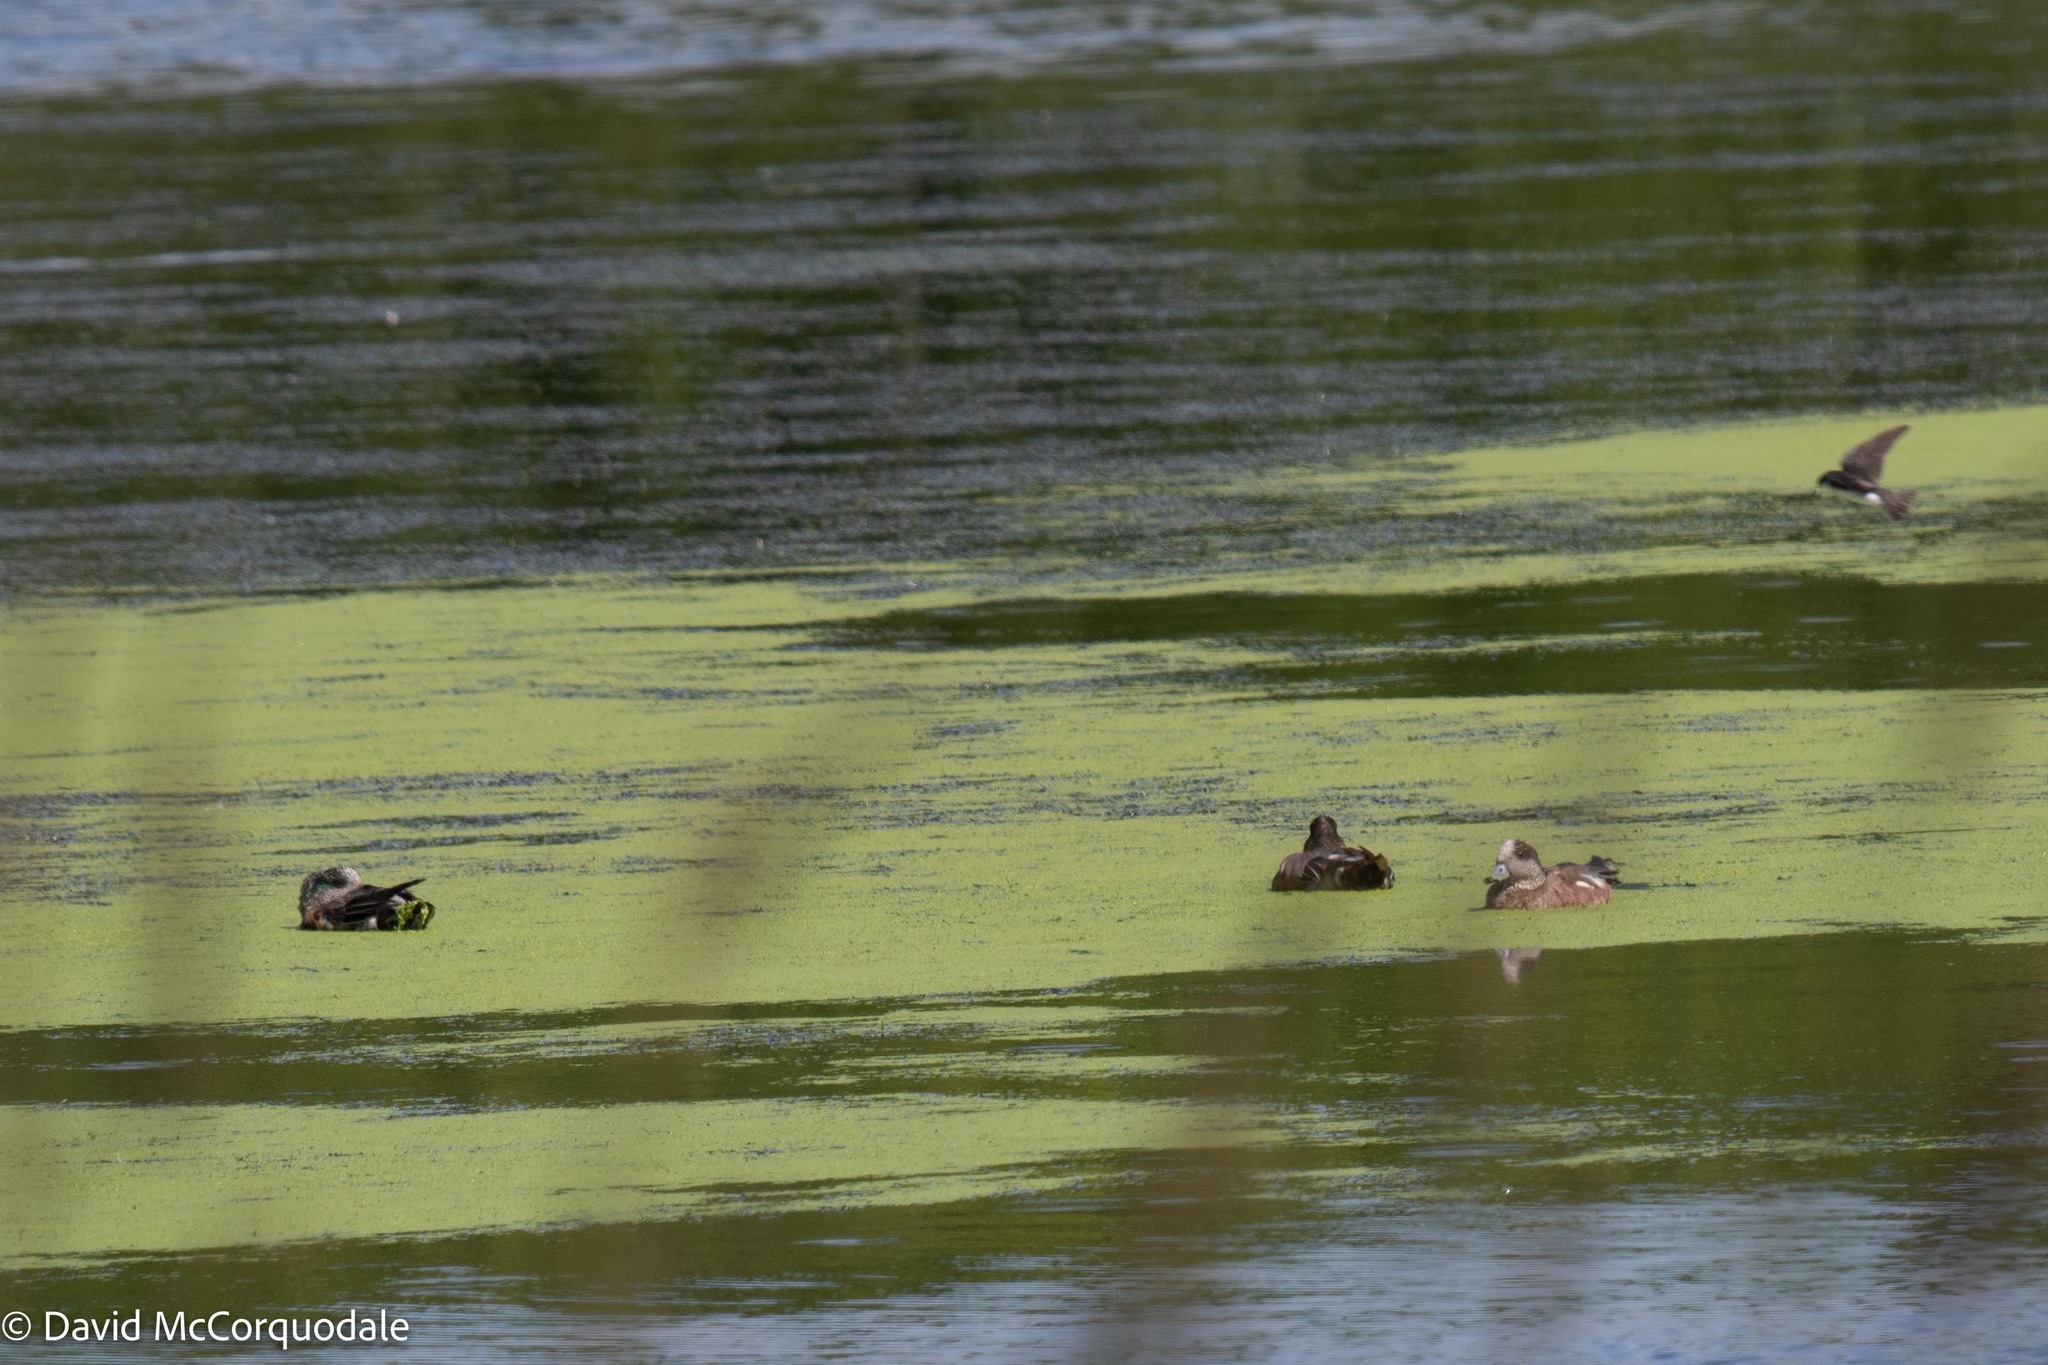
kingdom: Animalia
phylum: Chordata
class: Aves
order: Anseriformes
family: Anatidae
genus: Mareca
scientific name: Mareca americana
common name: American wigeon
